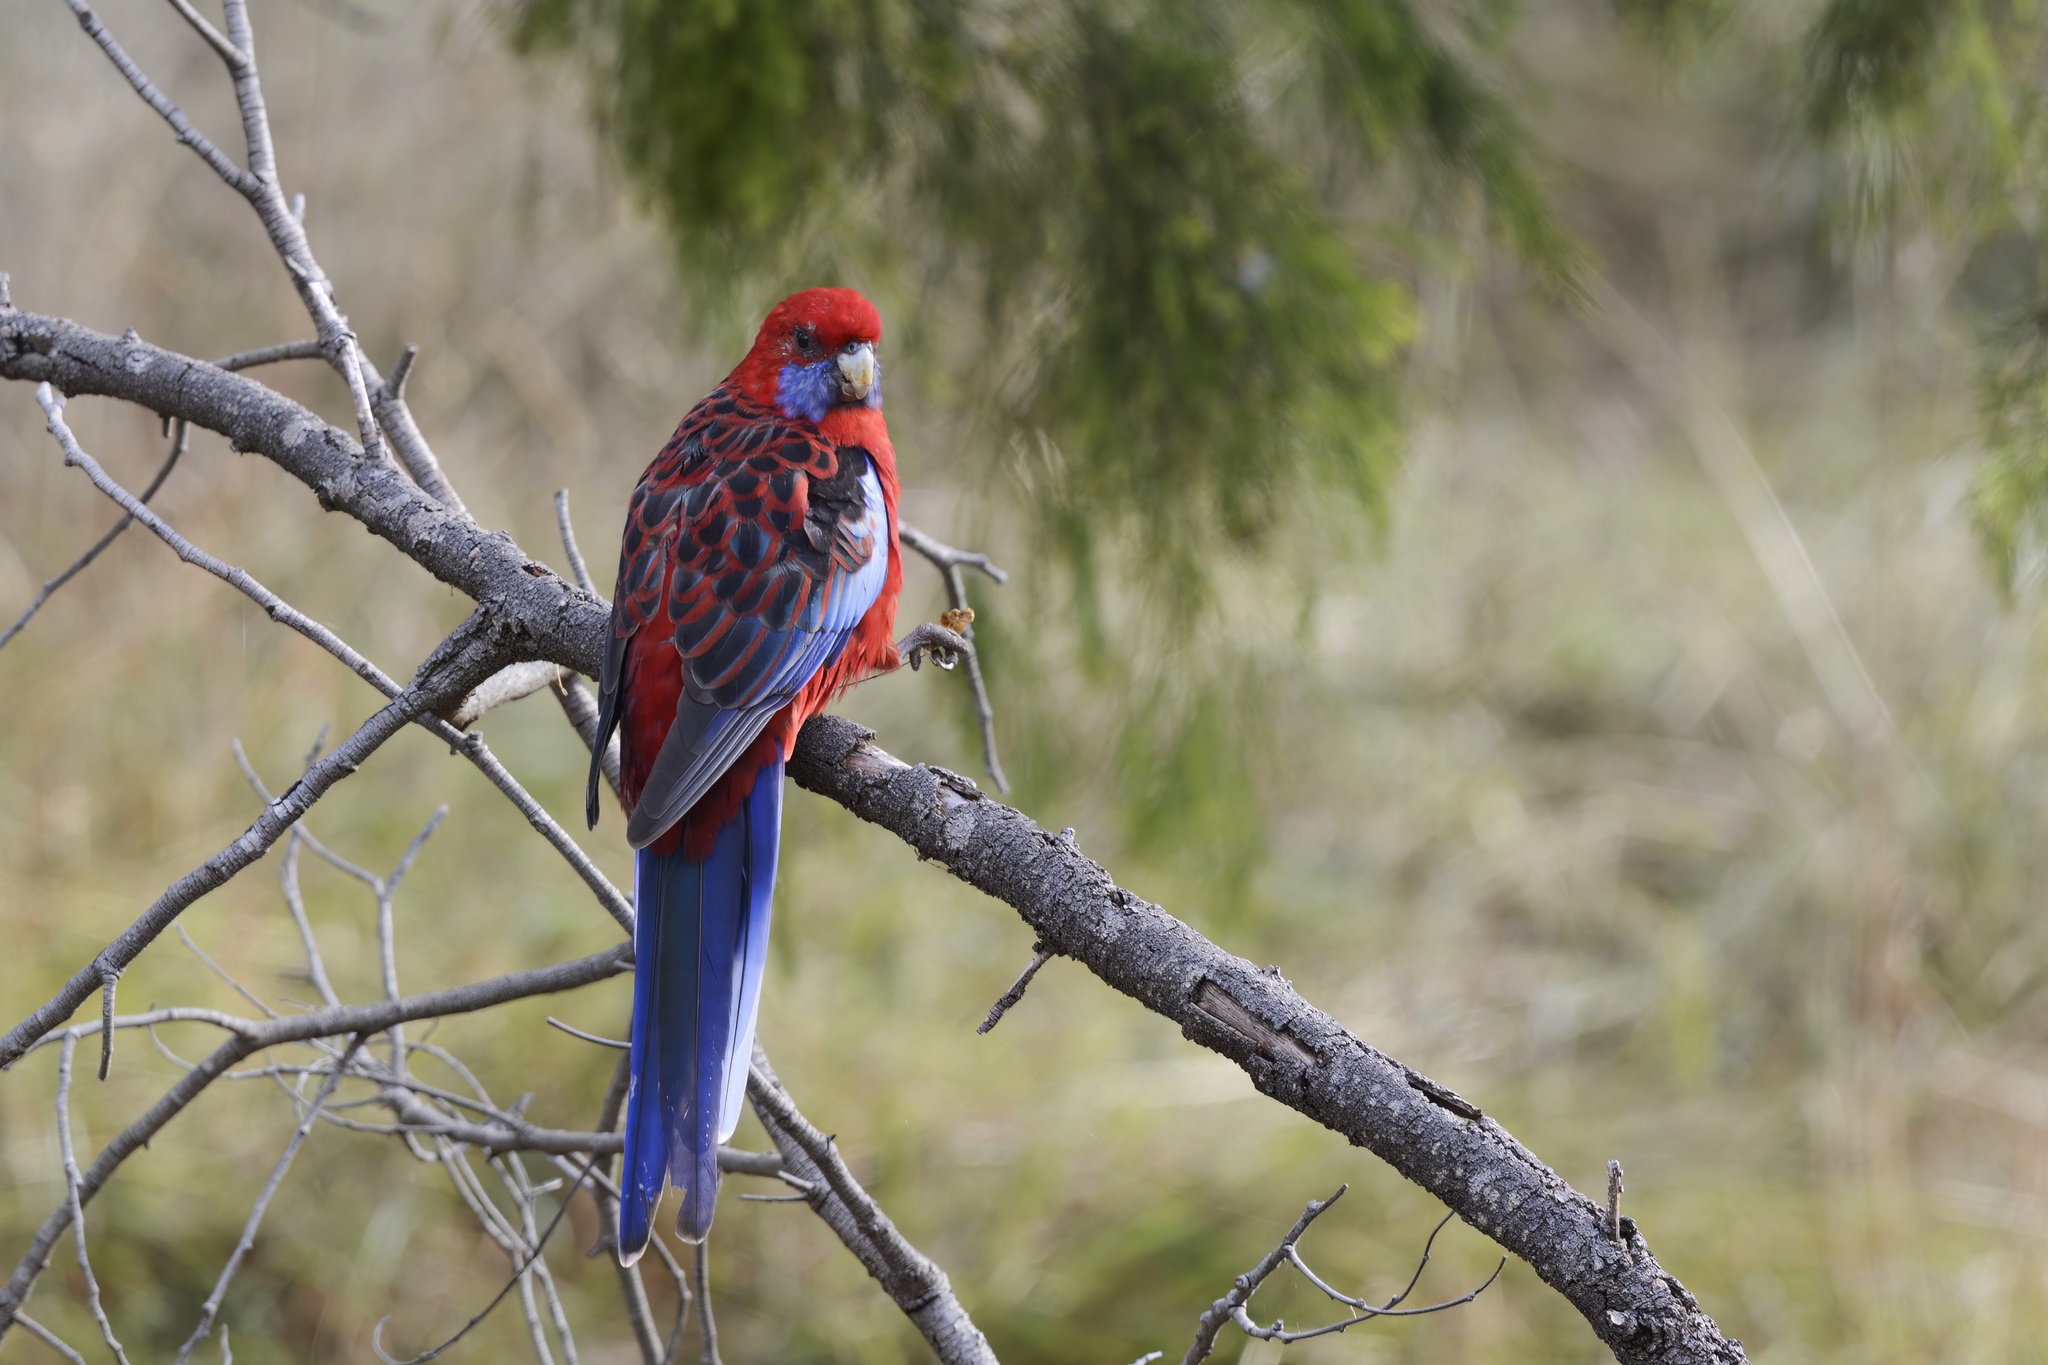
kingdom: Animalia
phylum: Chordata
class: Aves
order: Psittaciformes
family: Psittacidae
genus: Platycercus
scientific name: Platycercus elegans
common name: Crimson rosella
